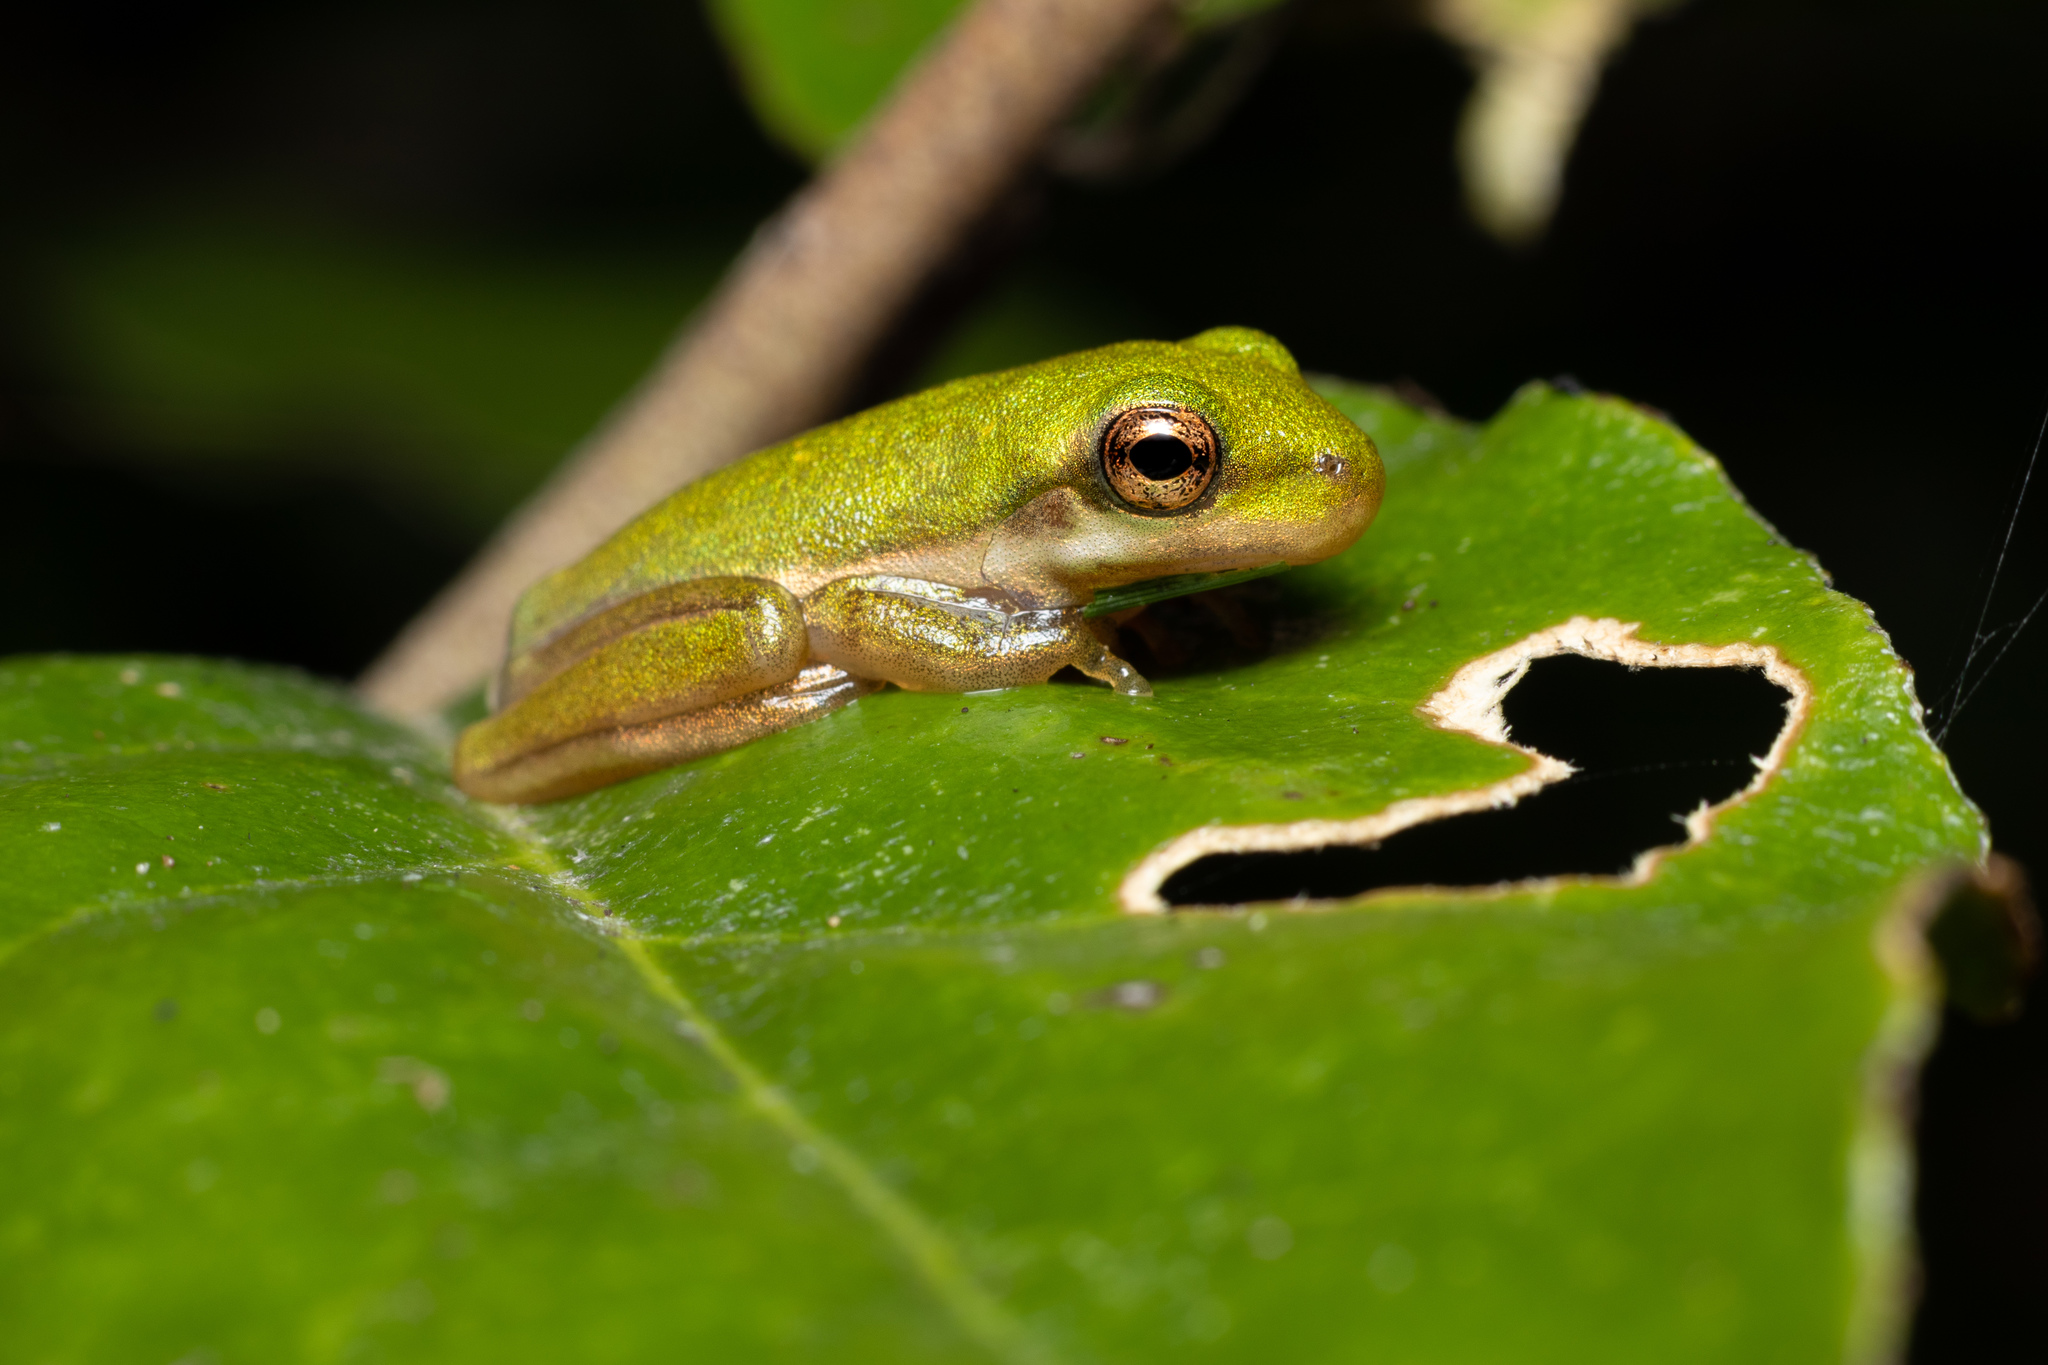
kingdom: Animalia
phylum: Chordata
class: Amphibia
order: Anura
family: Hylidae
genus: Dryophytes
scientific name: Dryophytes cinereus
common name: Green treefrog
